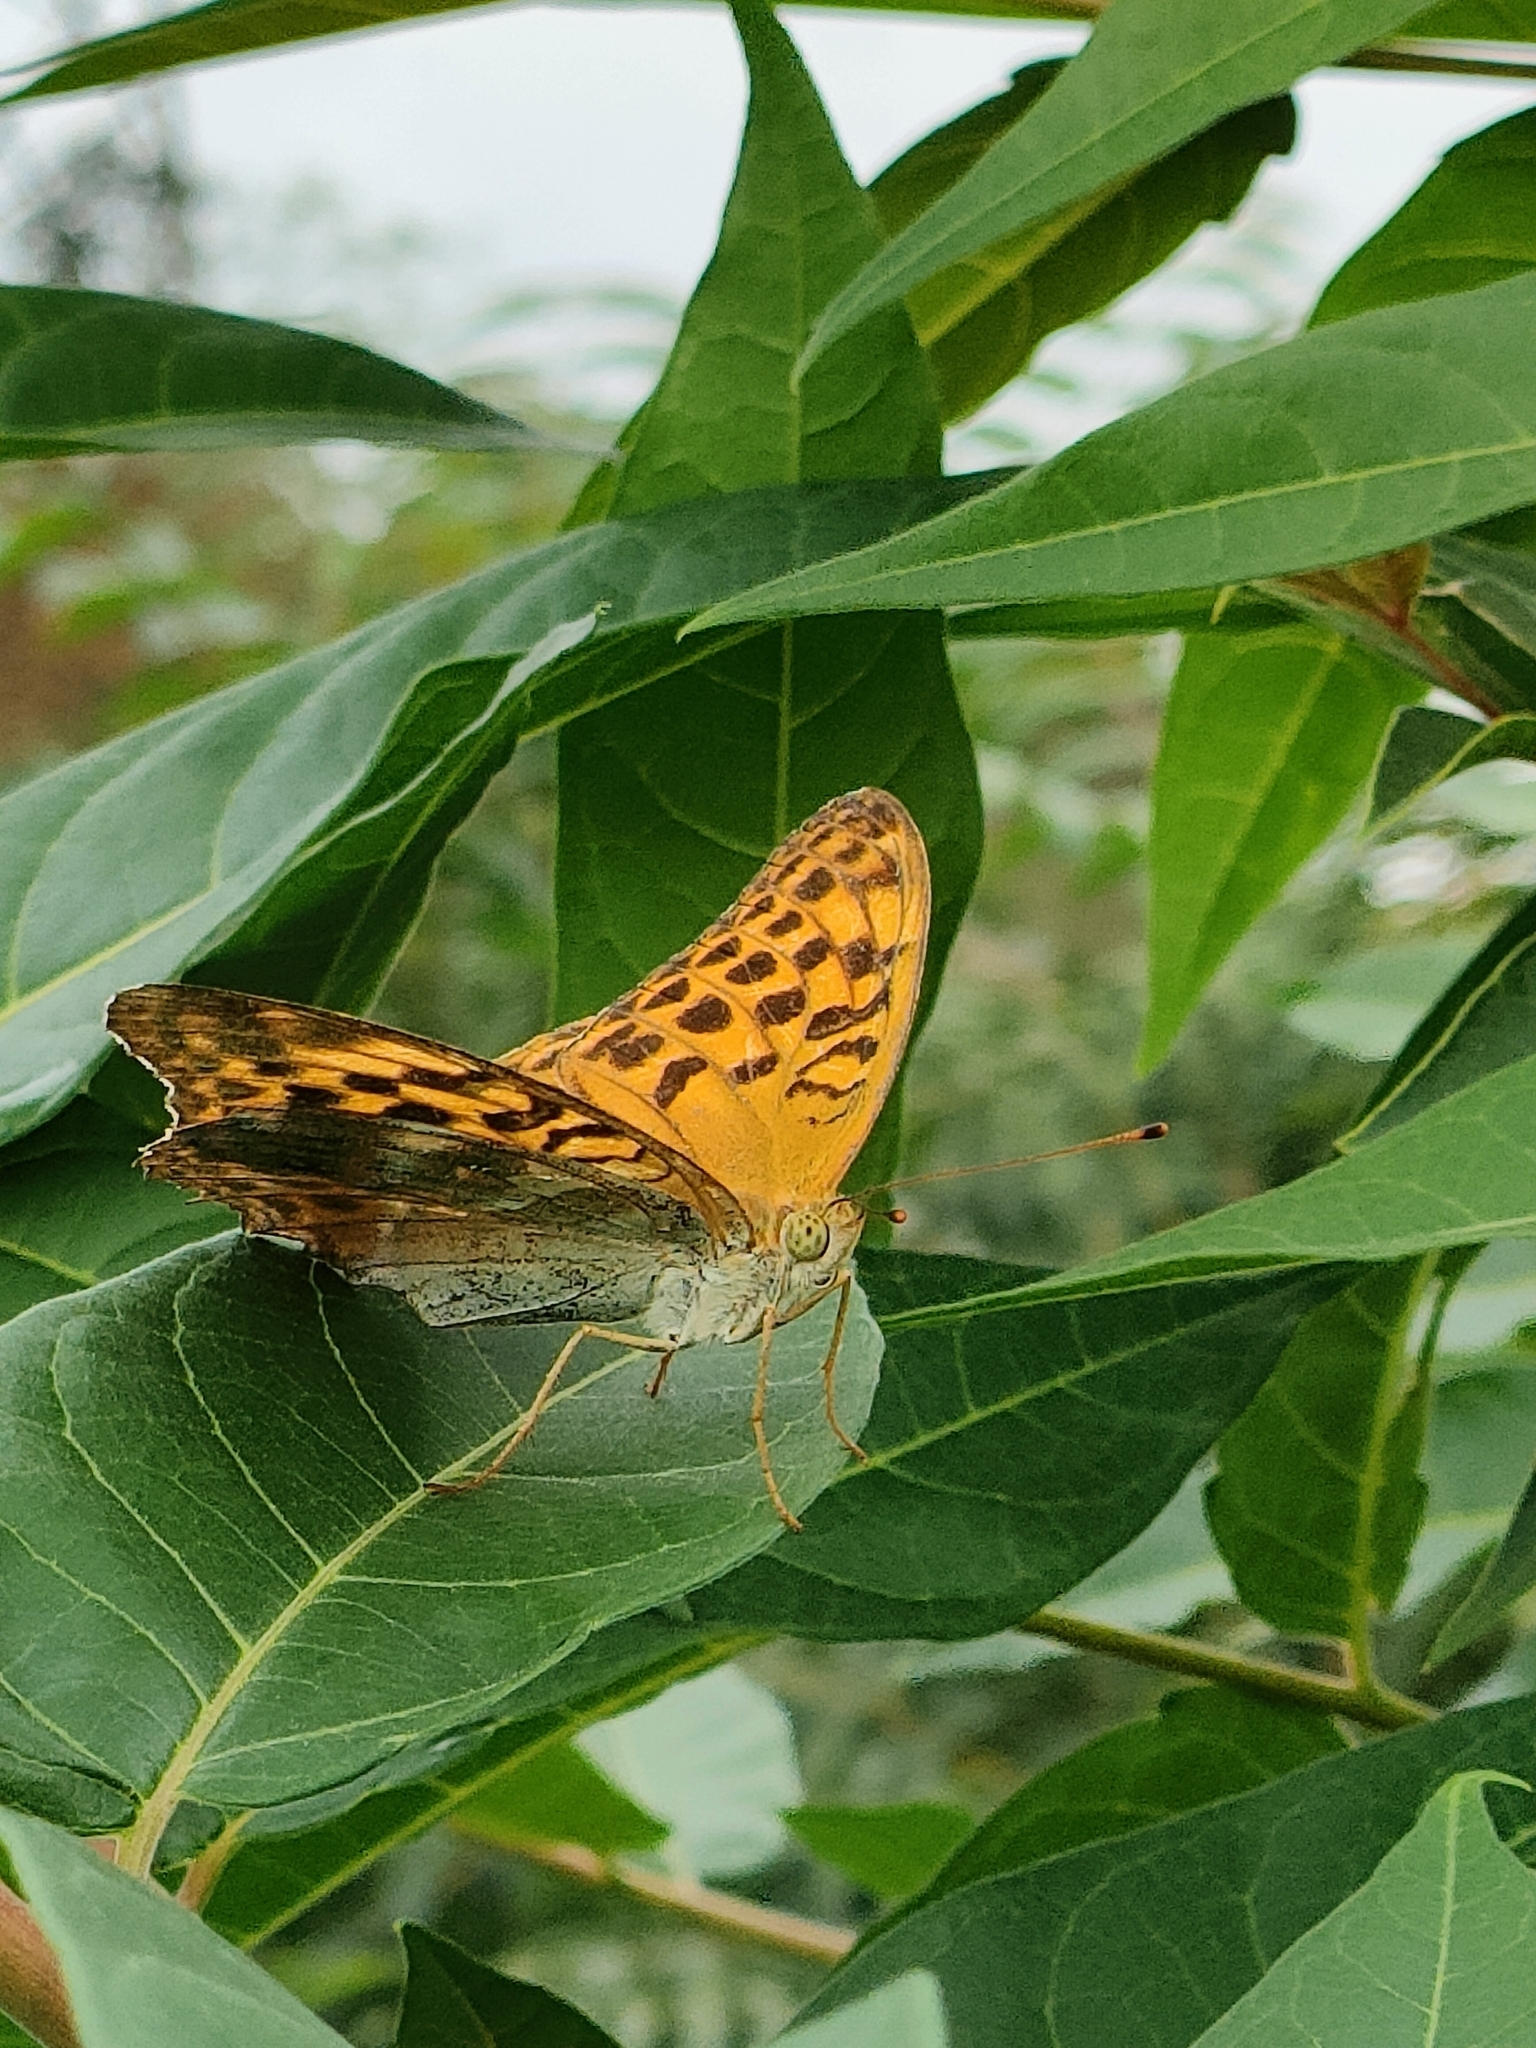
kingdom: Animalia
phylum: Arthropoda
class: Insecta
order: Lepidoptera
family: Nymphalidae
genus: Argynnis
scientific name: Argynnis paphia
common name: Silver-washed fritillary
